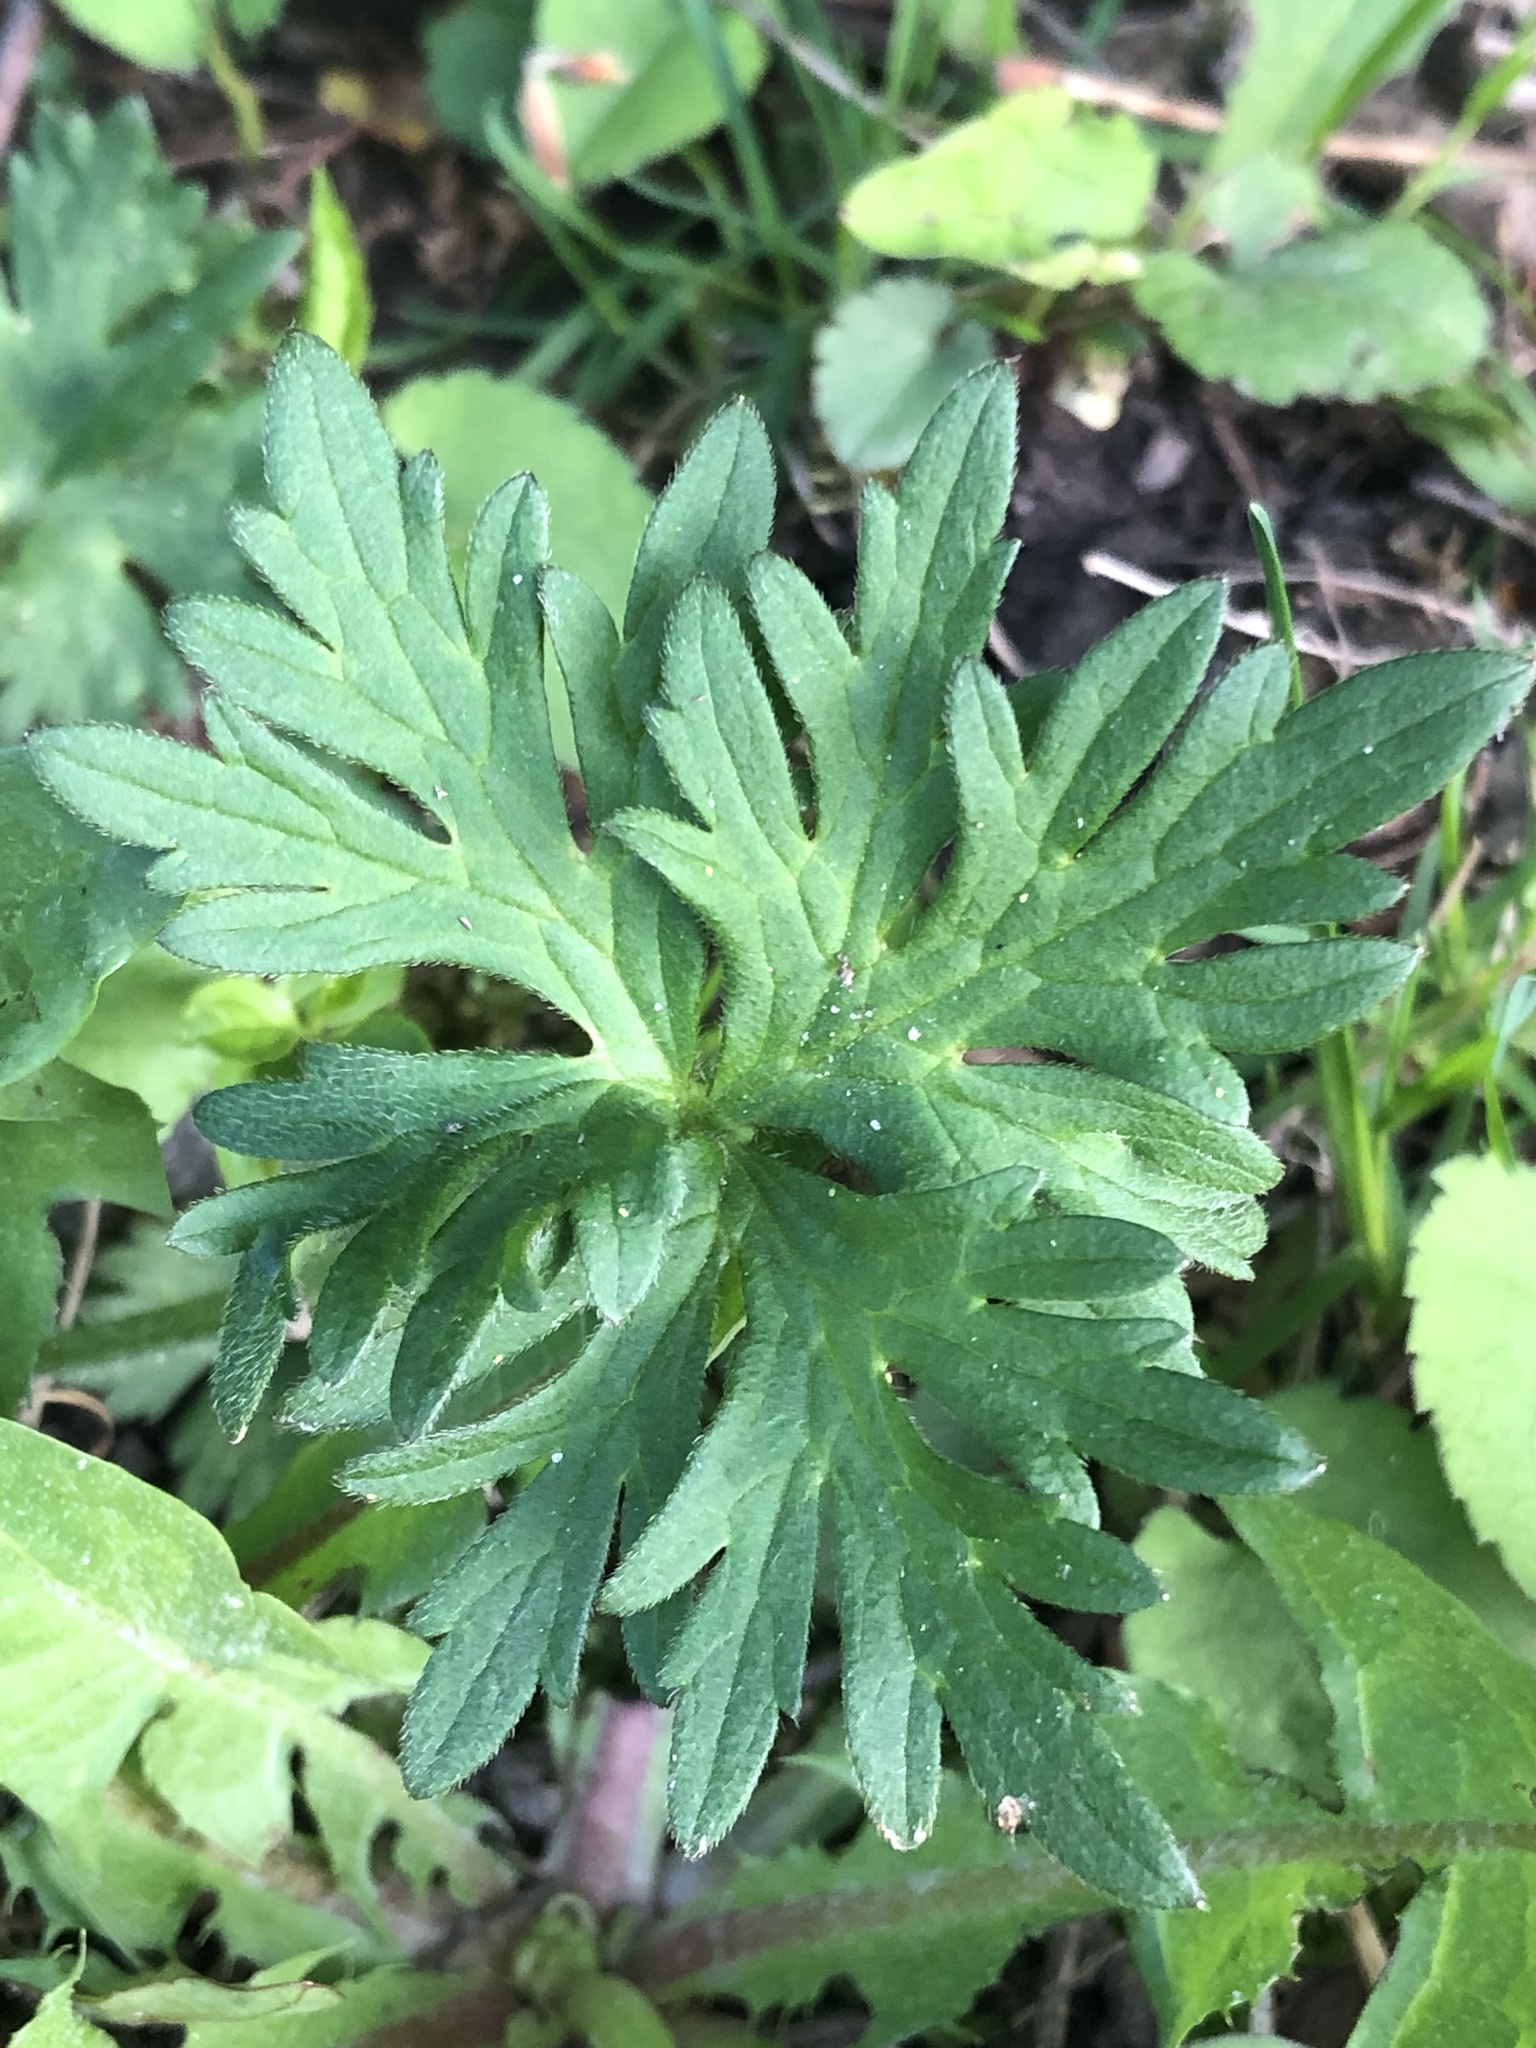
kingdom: Plantae
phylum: Tracheophyta
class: Magnoliopsida
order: Ranunculales
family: Ranunculaceae
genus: Ranunculus
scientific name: Ranunculus acris
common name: Meadow buttercup
